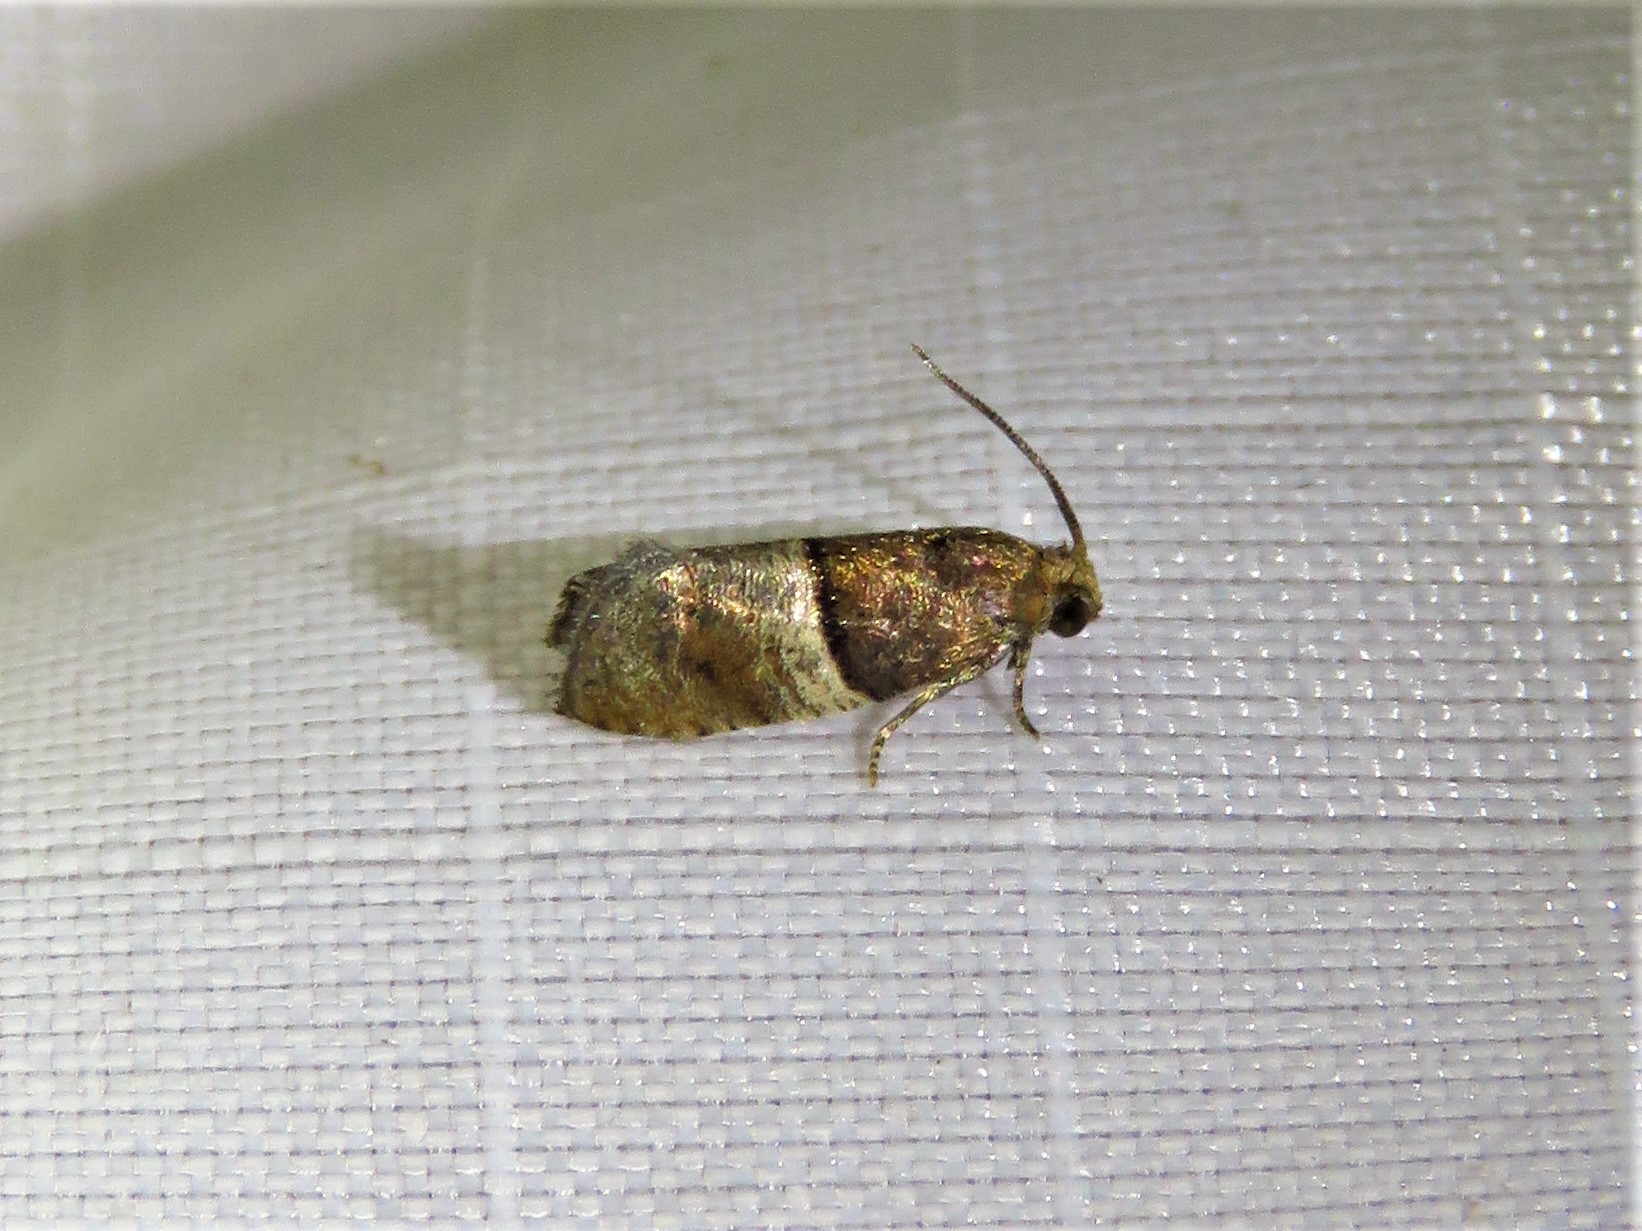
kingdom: Animalia
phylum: Arthropoda
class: Insecta
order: Lepidoptera
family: Tortricidae
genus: Larisa
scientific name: Larisa subsolana
